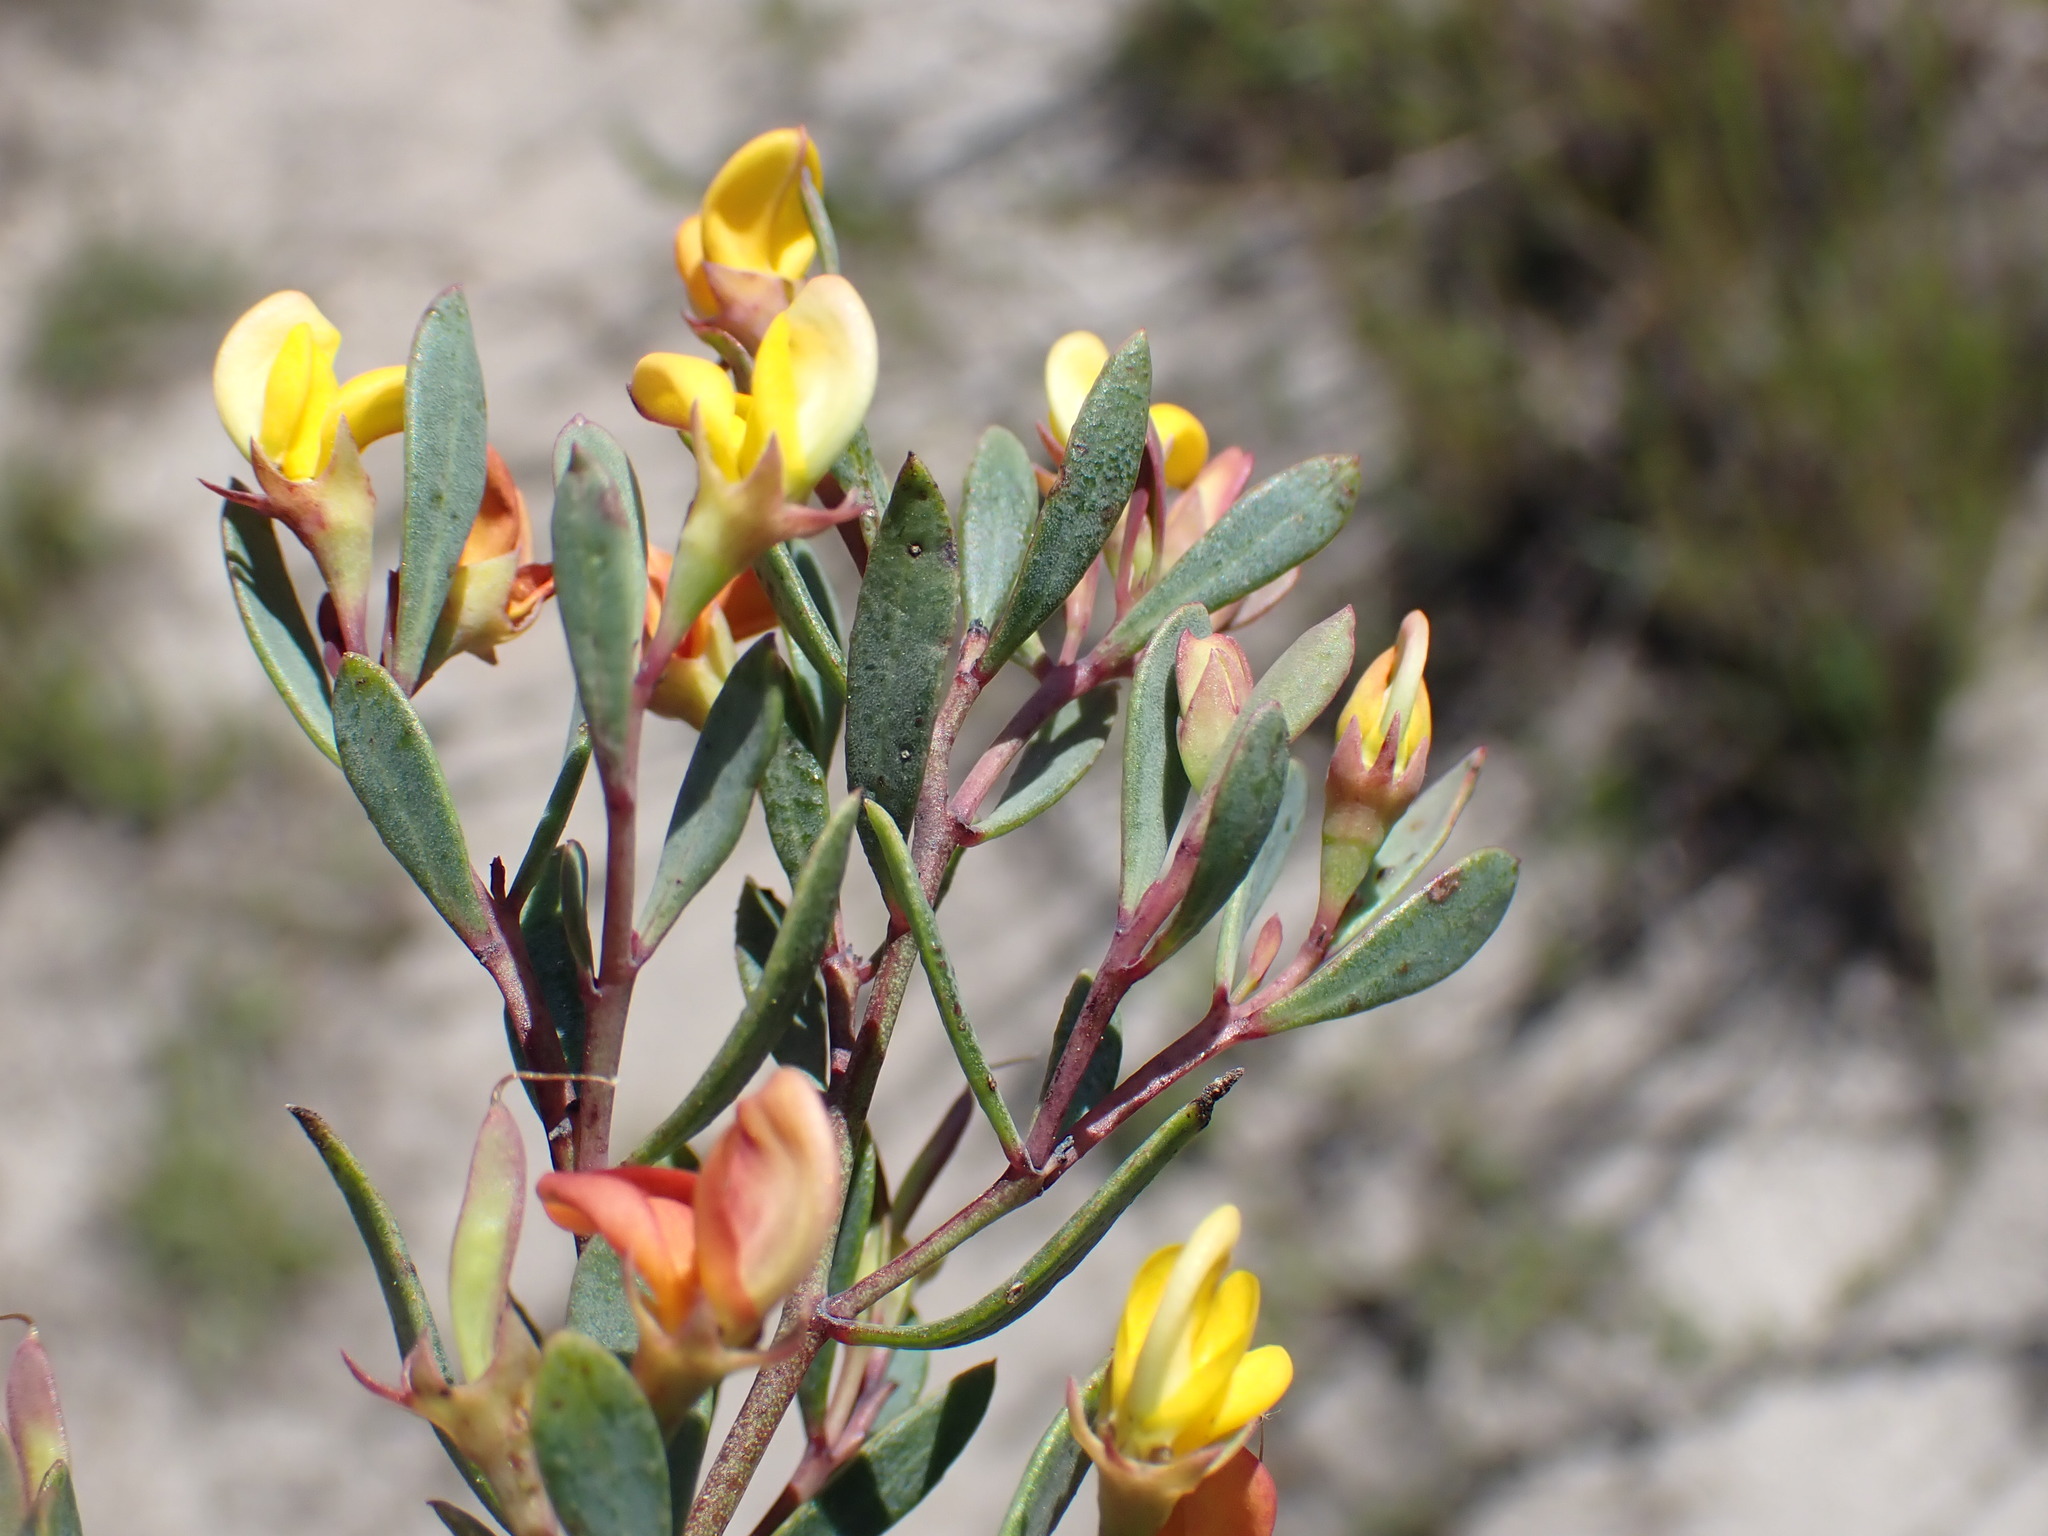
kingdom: Plantae
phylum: Tracheophyta
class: Magnoliopsida
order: Fabales
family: Fabaceae
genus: Rafnia
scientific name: Rafnia capensis
